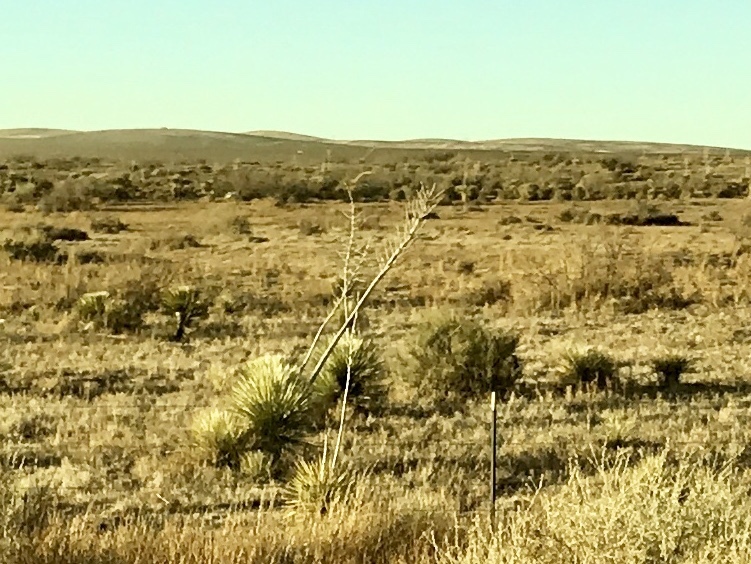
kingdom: Plantae
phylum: Tracheophyta
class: Liliopsida
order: Asparagales
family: Asparagaceae
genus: Yucca
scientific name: Yucca elata
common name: Palmella
